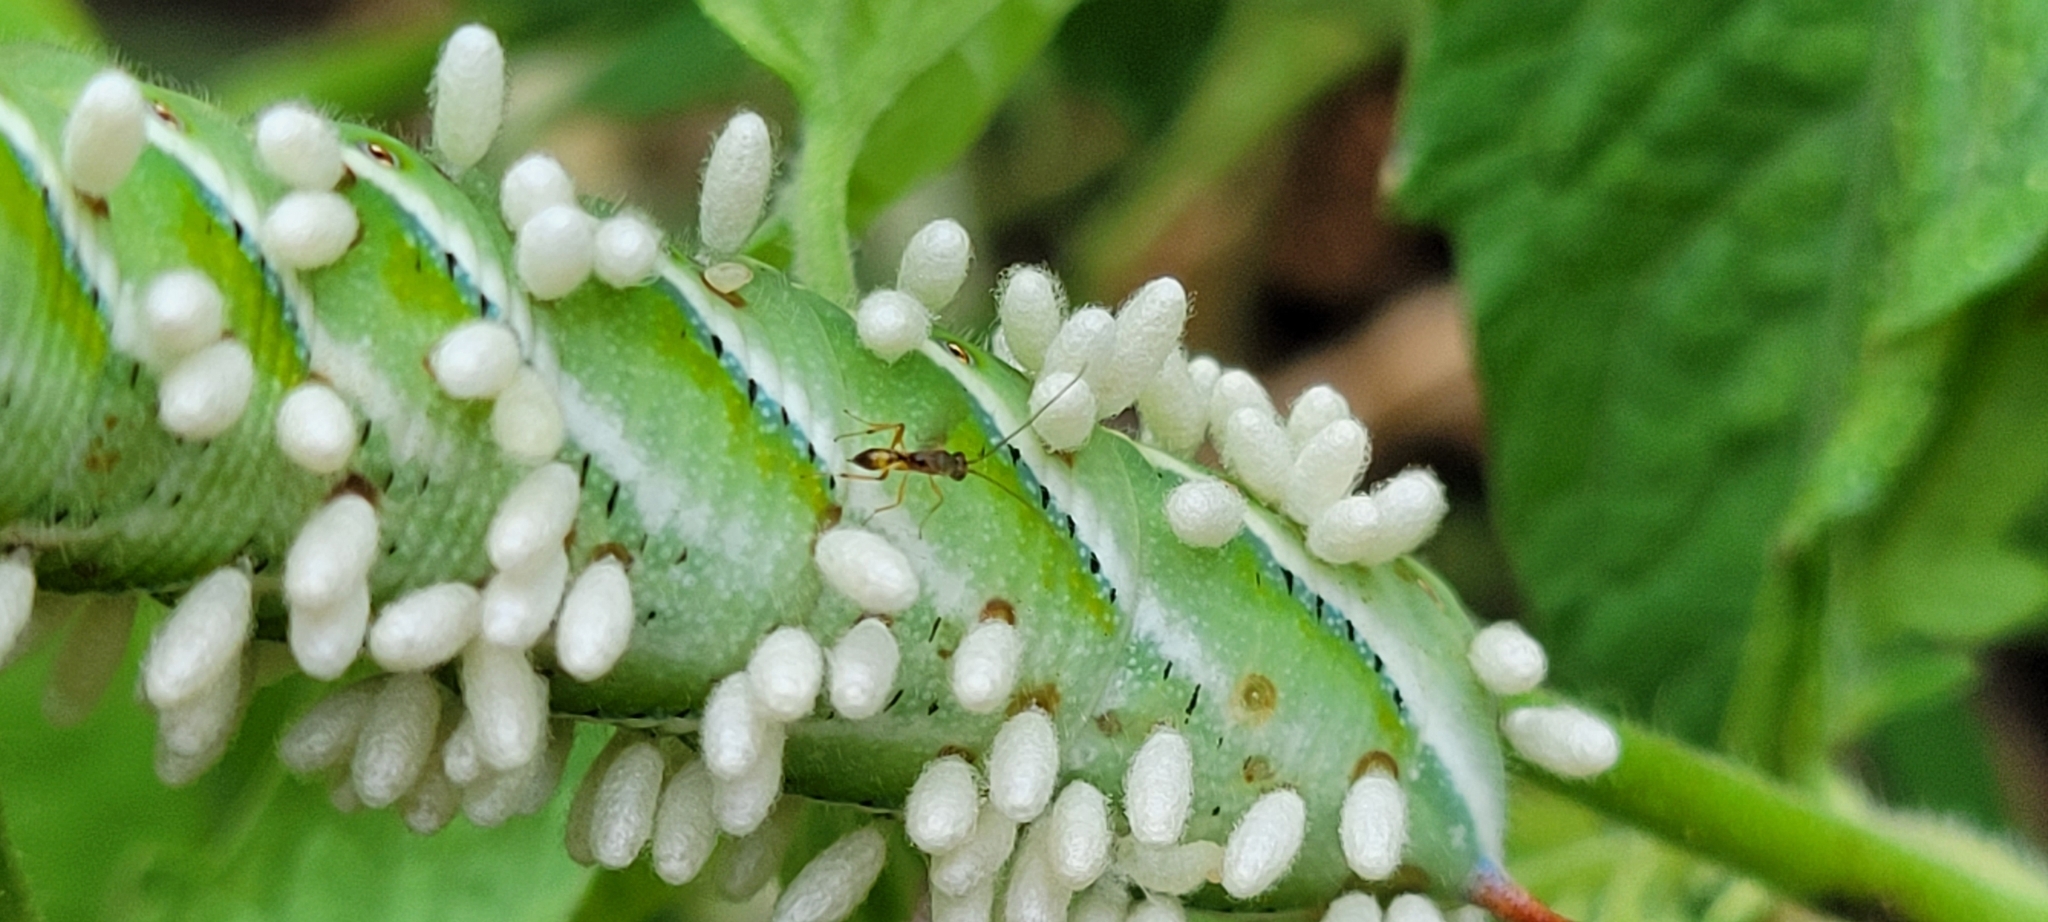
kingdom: Animalia
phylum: Arthropoda
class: Insecta
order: Hymenoptera
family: Braconidae
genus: Cotesia
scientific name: Cotesia congregata
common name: Hornworm parasitoid wasp
